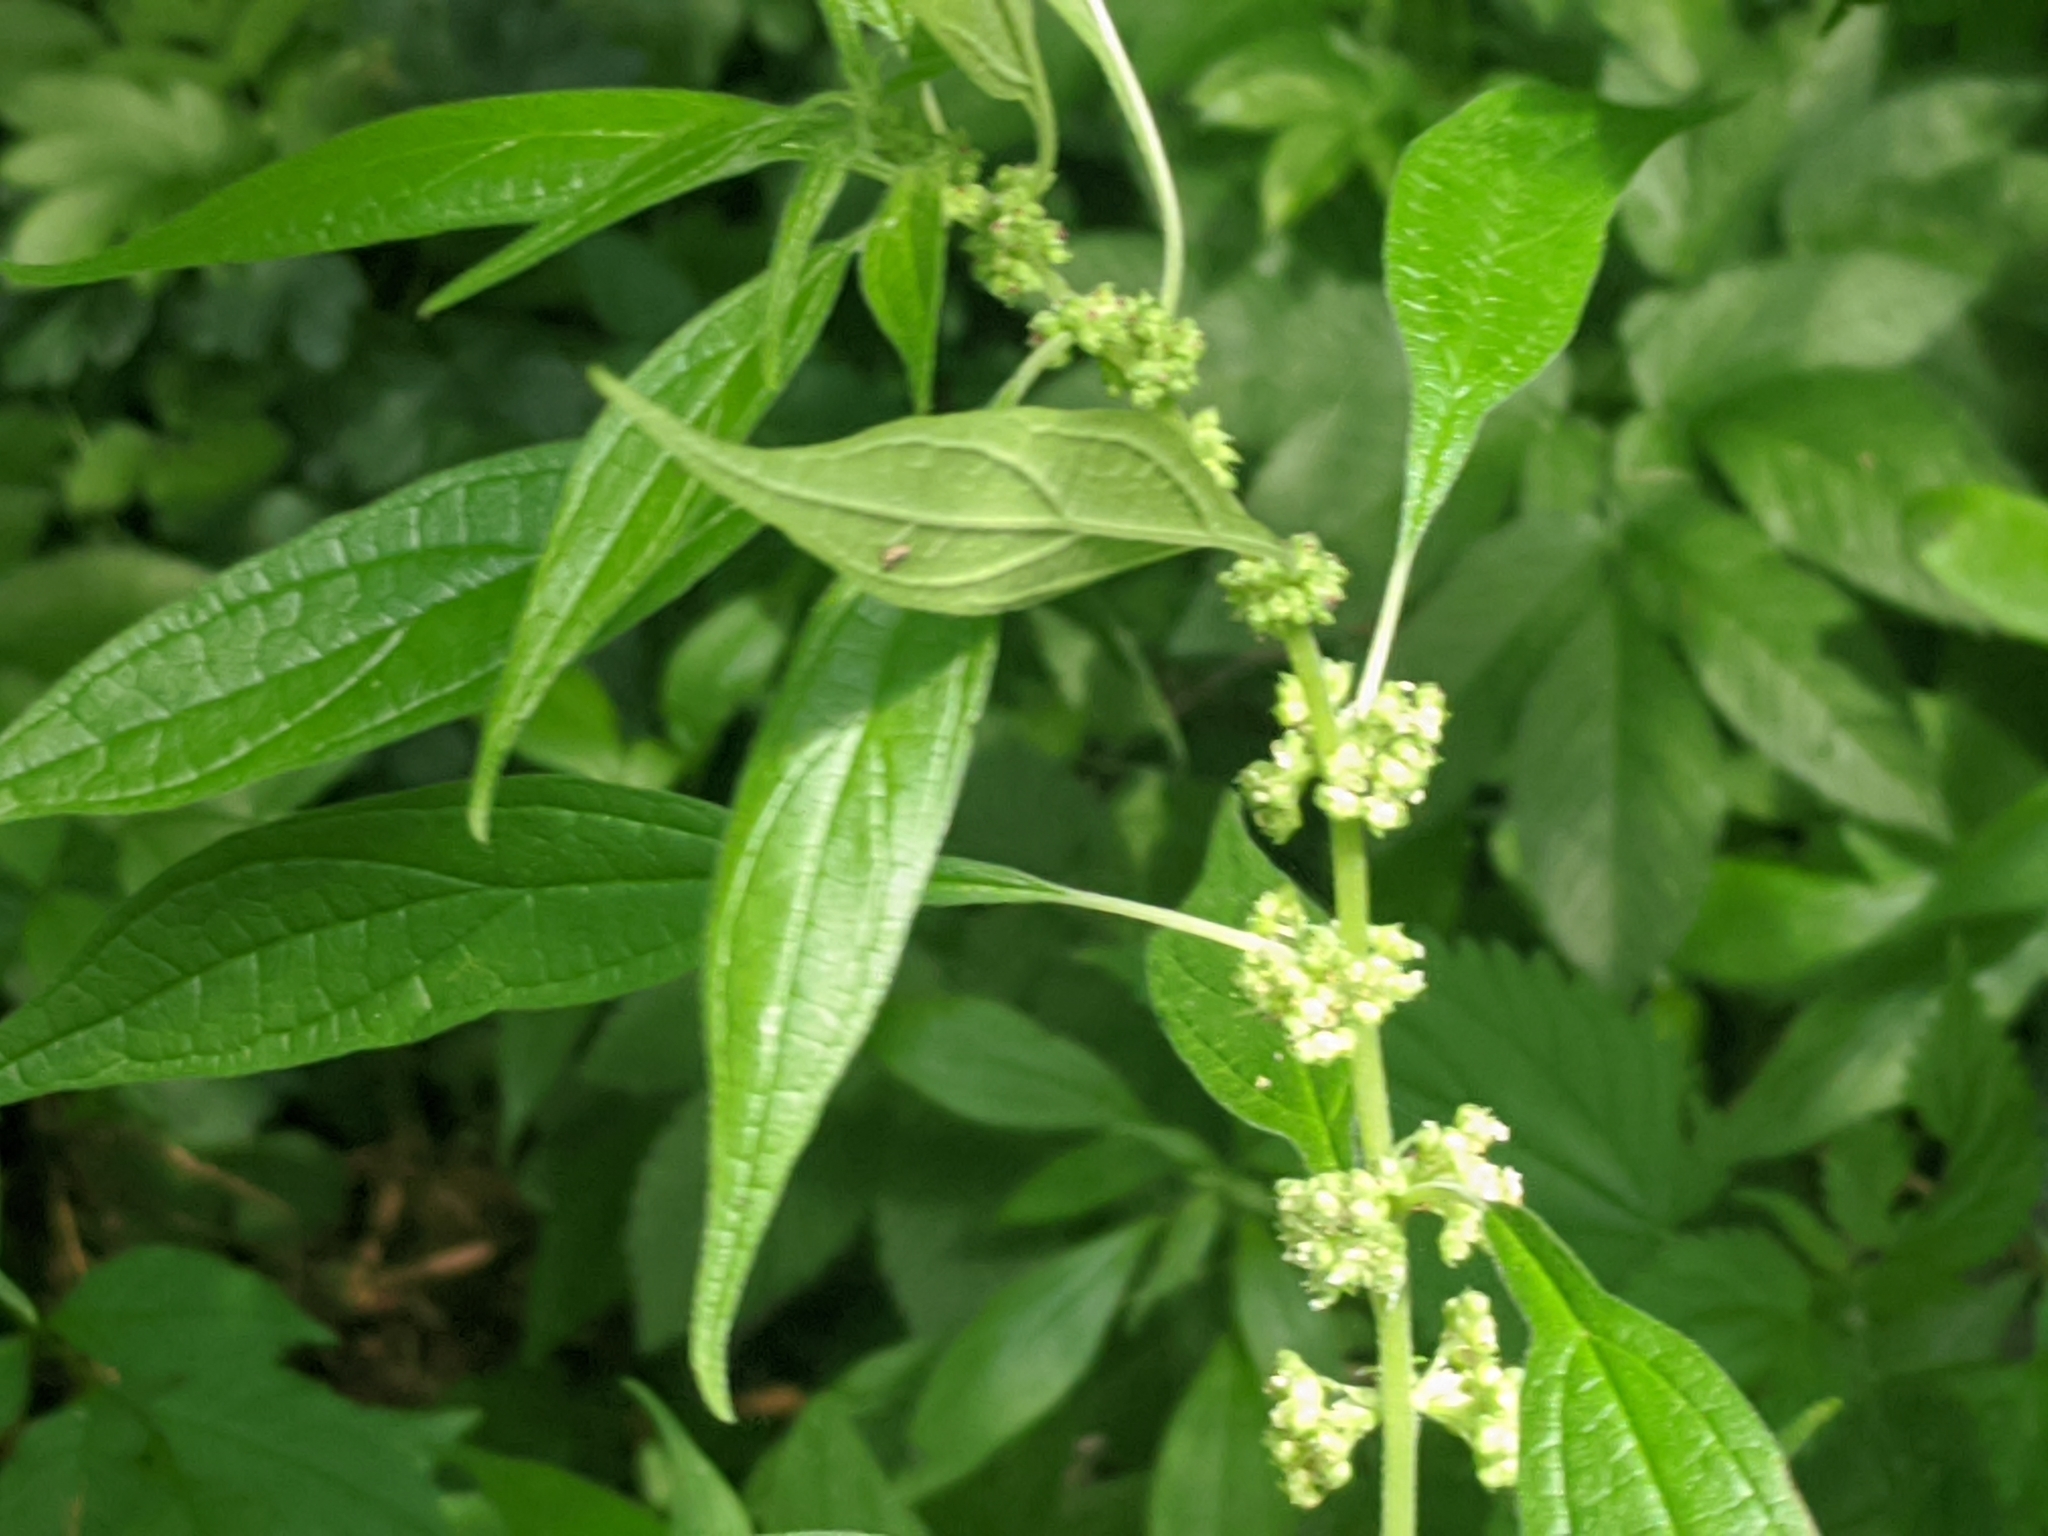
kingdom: Plantae
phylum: Tracheophyta
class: Magnoliopsida
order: Rosales
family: Urticaceae
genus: Parietaria
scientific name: Parietaria officinalis
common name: Eastern pellitory-of-the-wall
